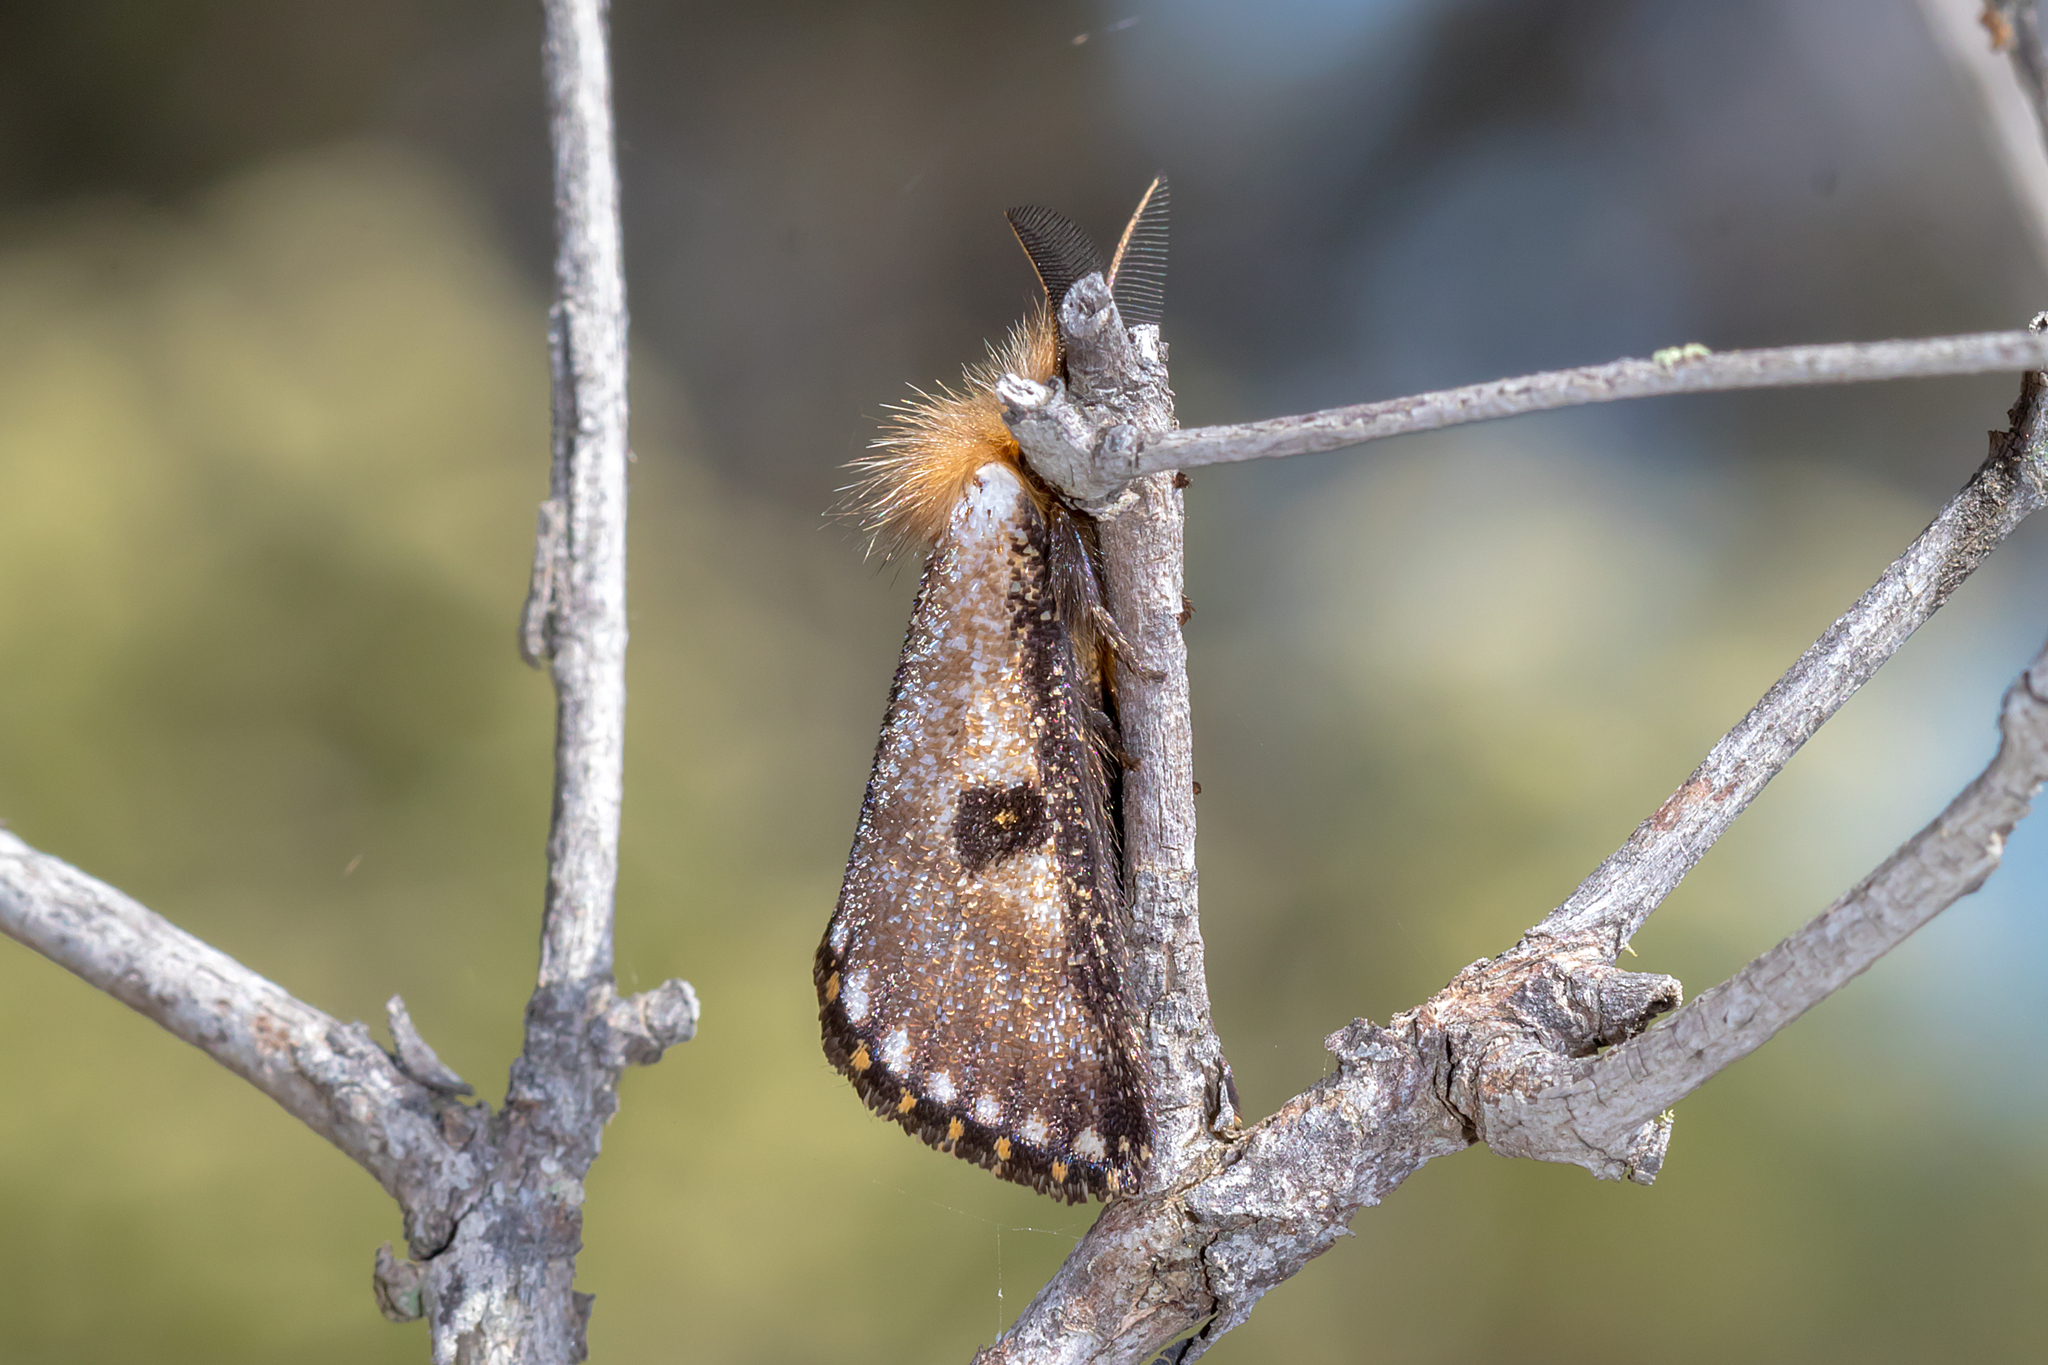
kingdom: Animalia
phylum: Arthropoda
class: Insecta
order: Lepidoptera
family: Notodontidae
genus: Epicoma
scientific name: Epicoma contristis
